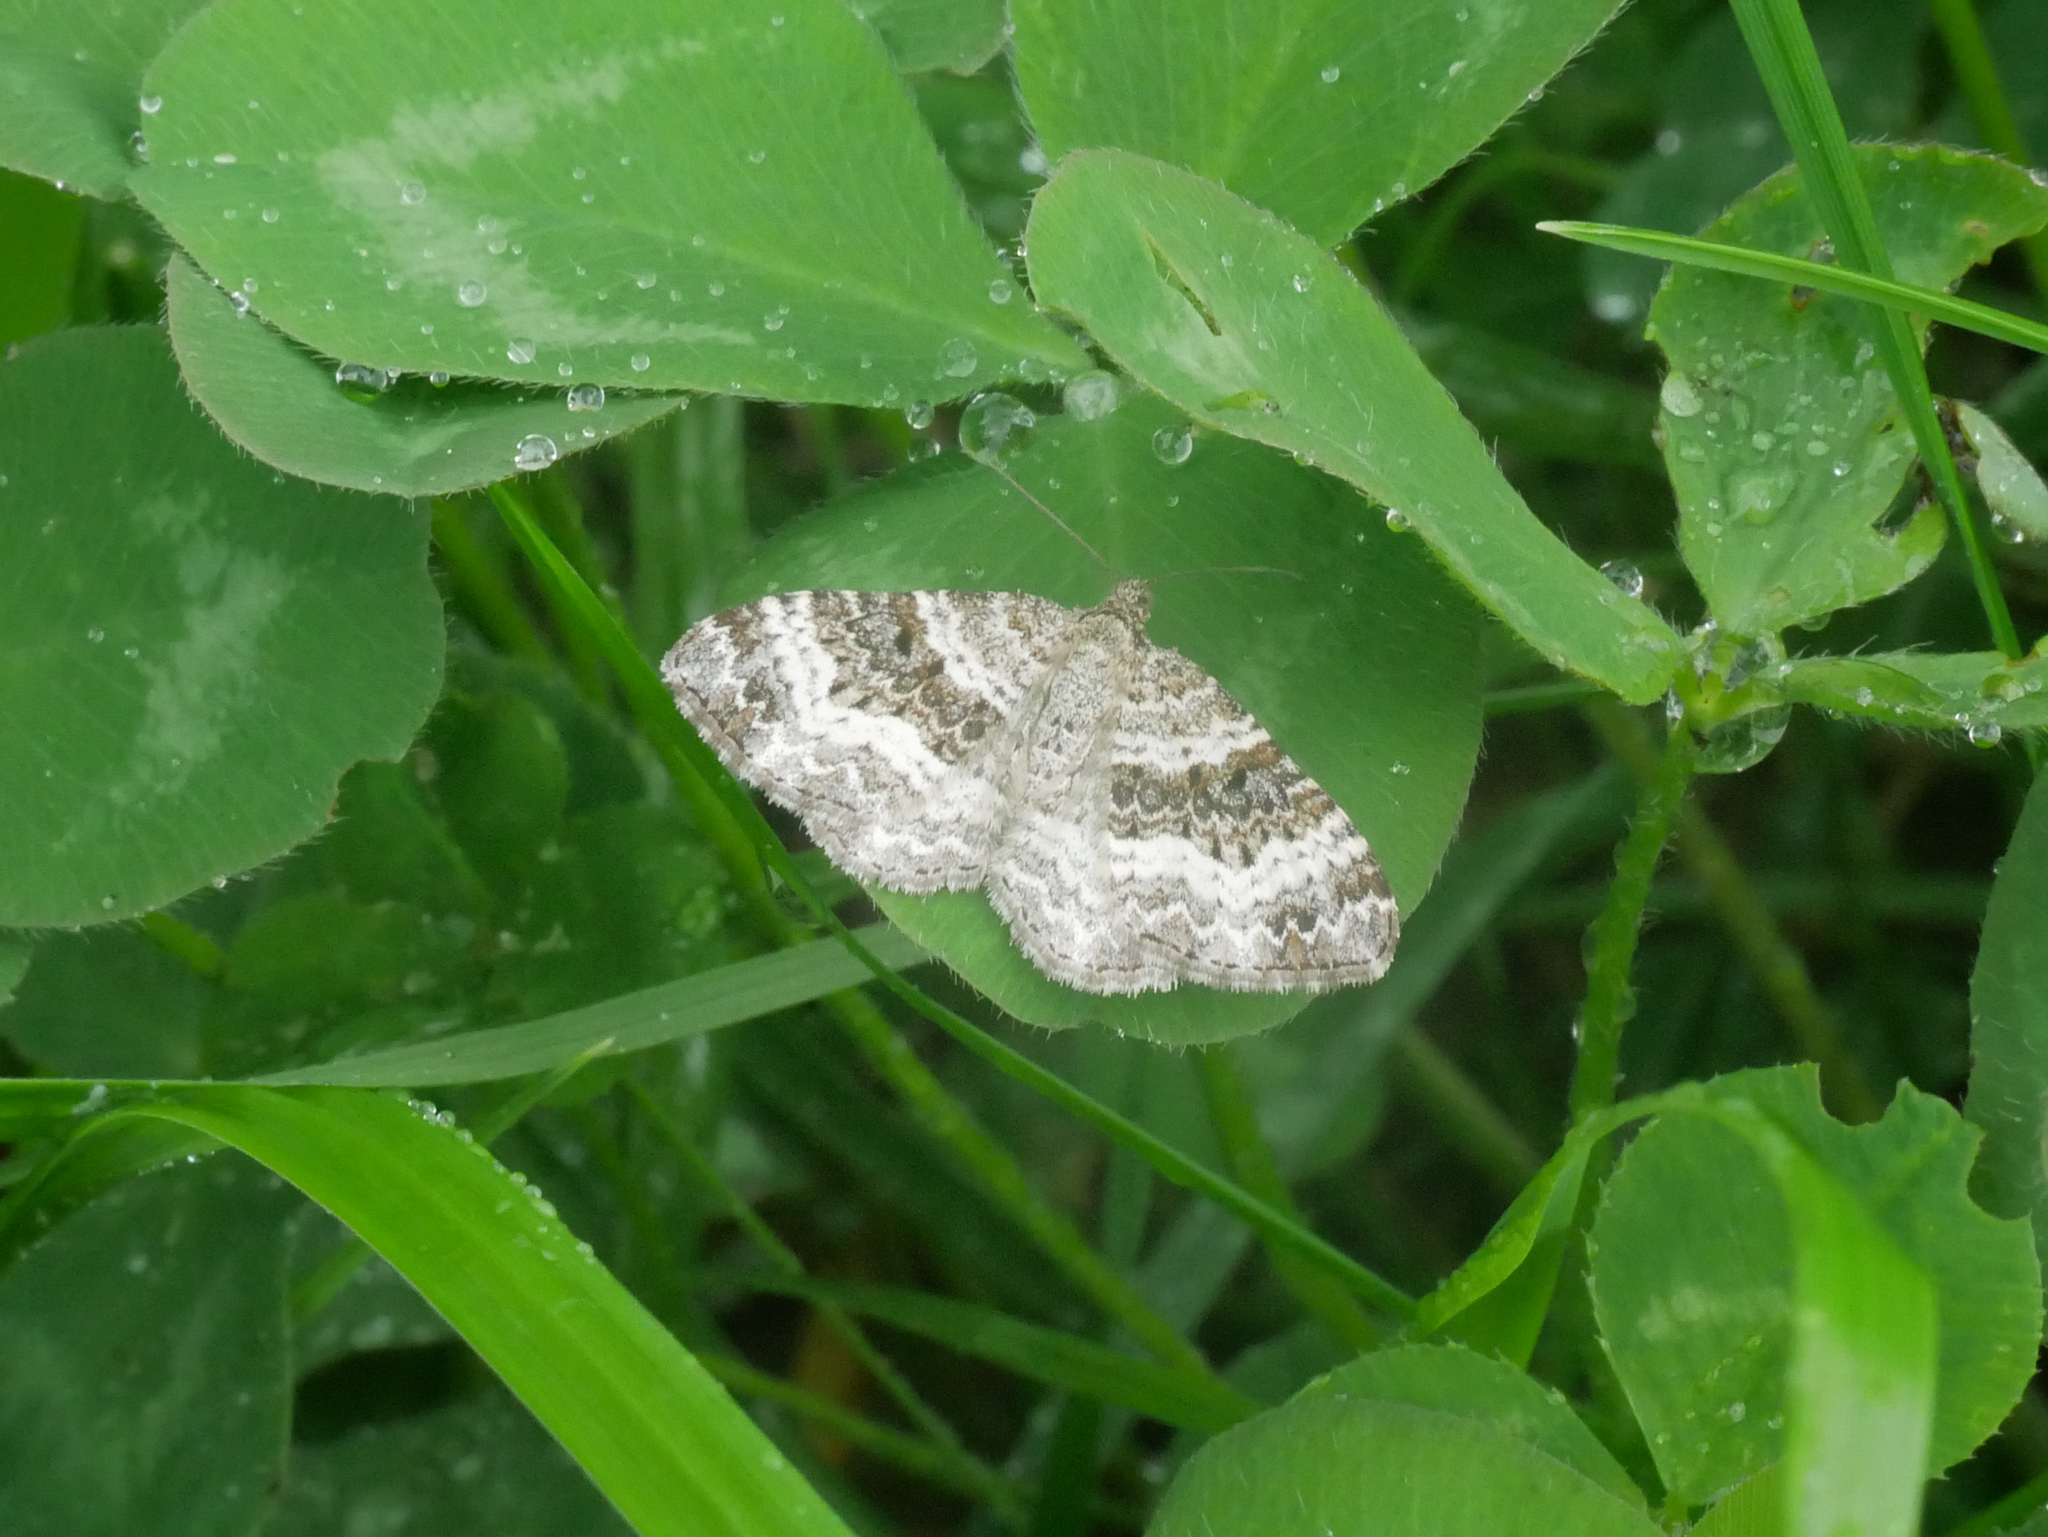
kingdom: Animalia
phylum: Arthropoda
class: Insecta
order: Lepidoptera
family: Geometridae
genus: Epirrhoe
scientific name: Epirrhoe alternata
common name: Common carpet
